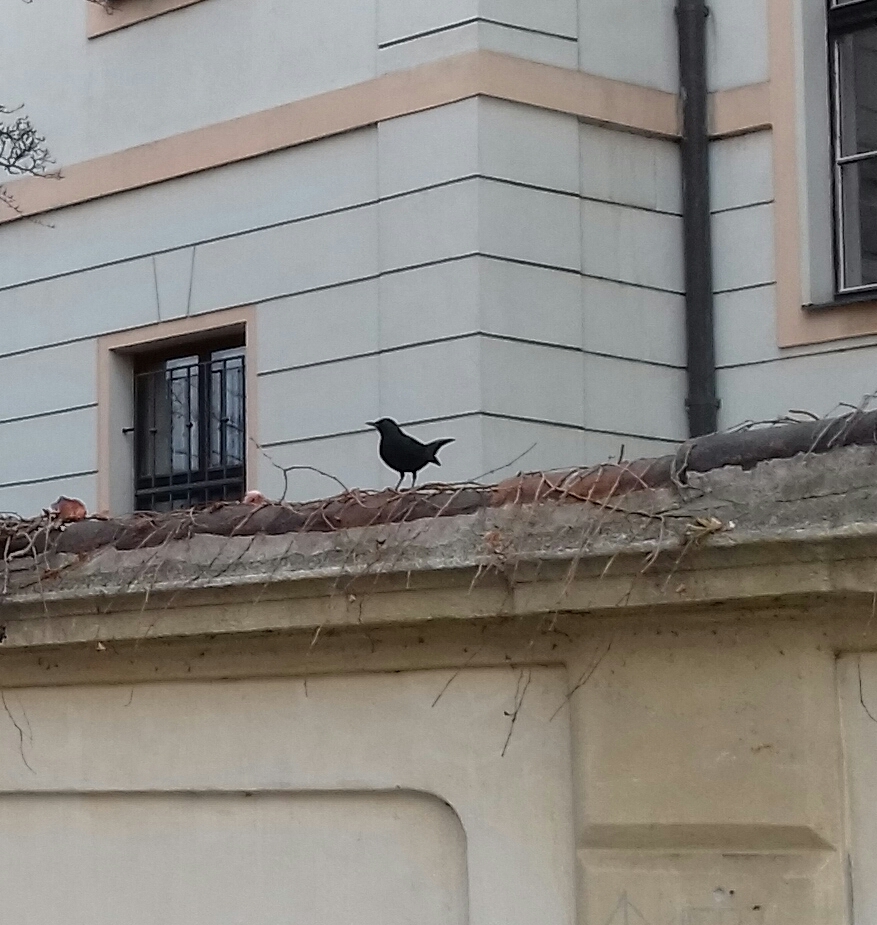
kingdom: Animalia
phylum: Chordata
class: Aves
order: Passeriformes
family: Turdidae
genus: Turdus
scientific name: Turdus merula
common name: Common blackbird
